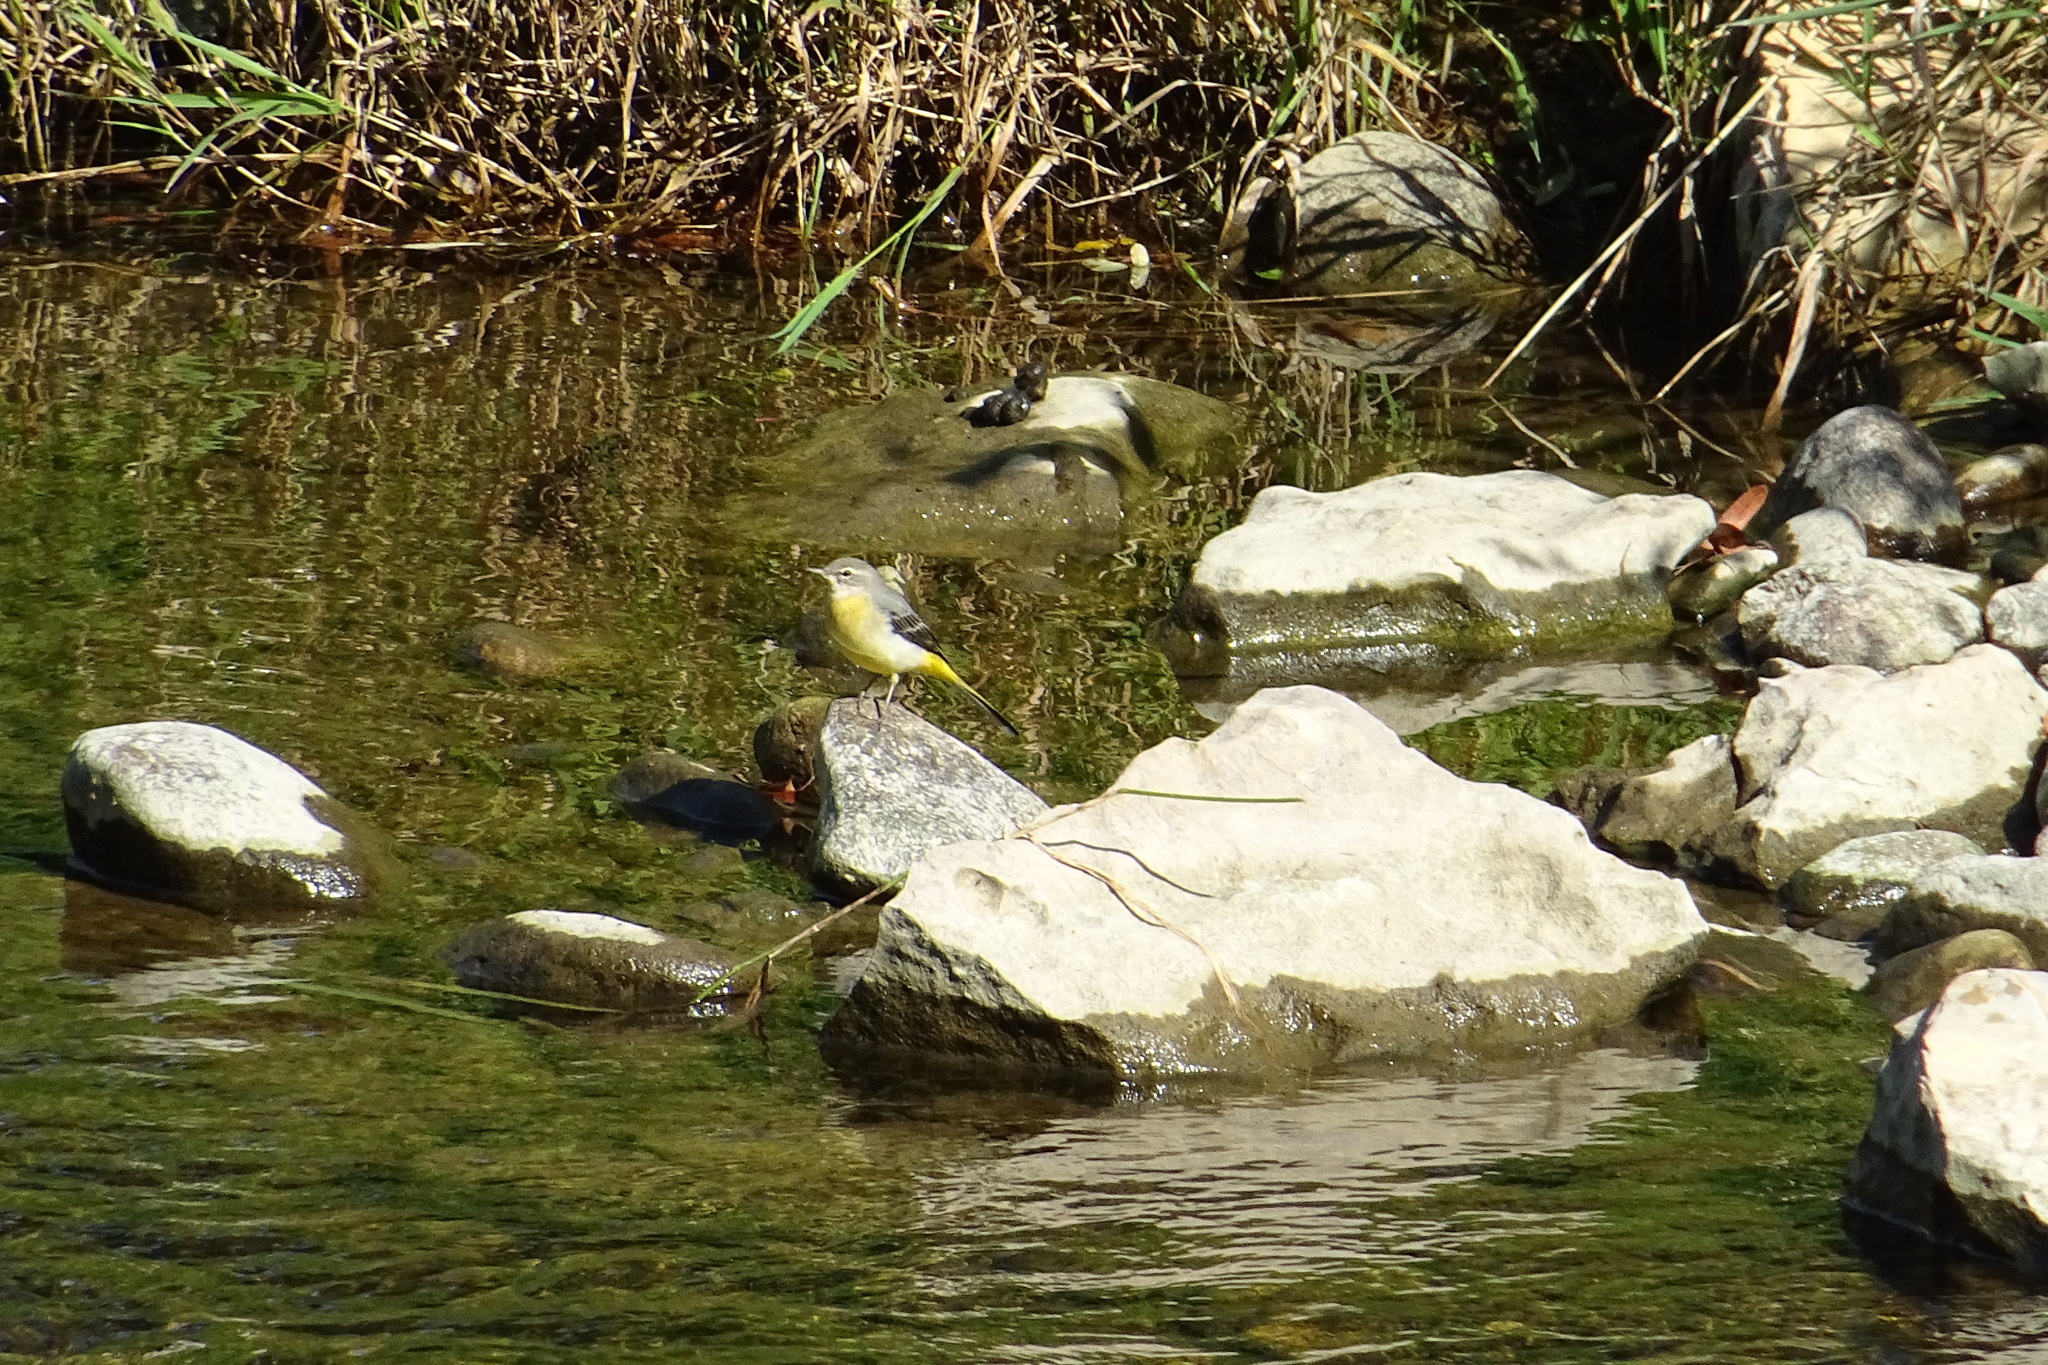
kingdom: Animalia
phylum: Chordata
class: Aves
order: Passeriformes
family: Motacillidae
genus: Motacilla
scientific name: Motacilla cinerea
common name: Grey wagtail
